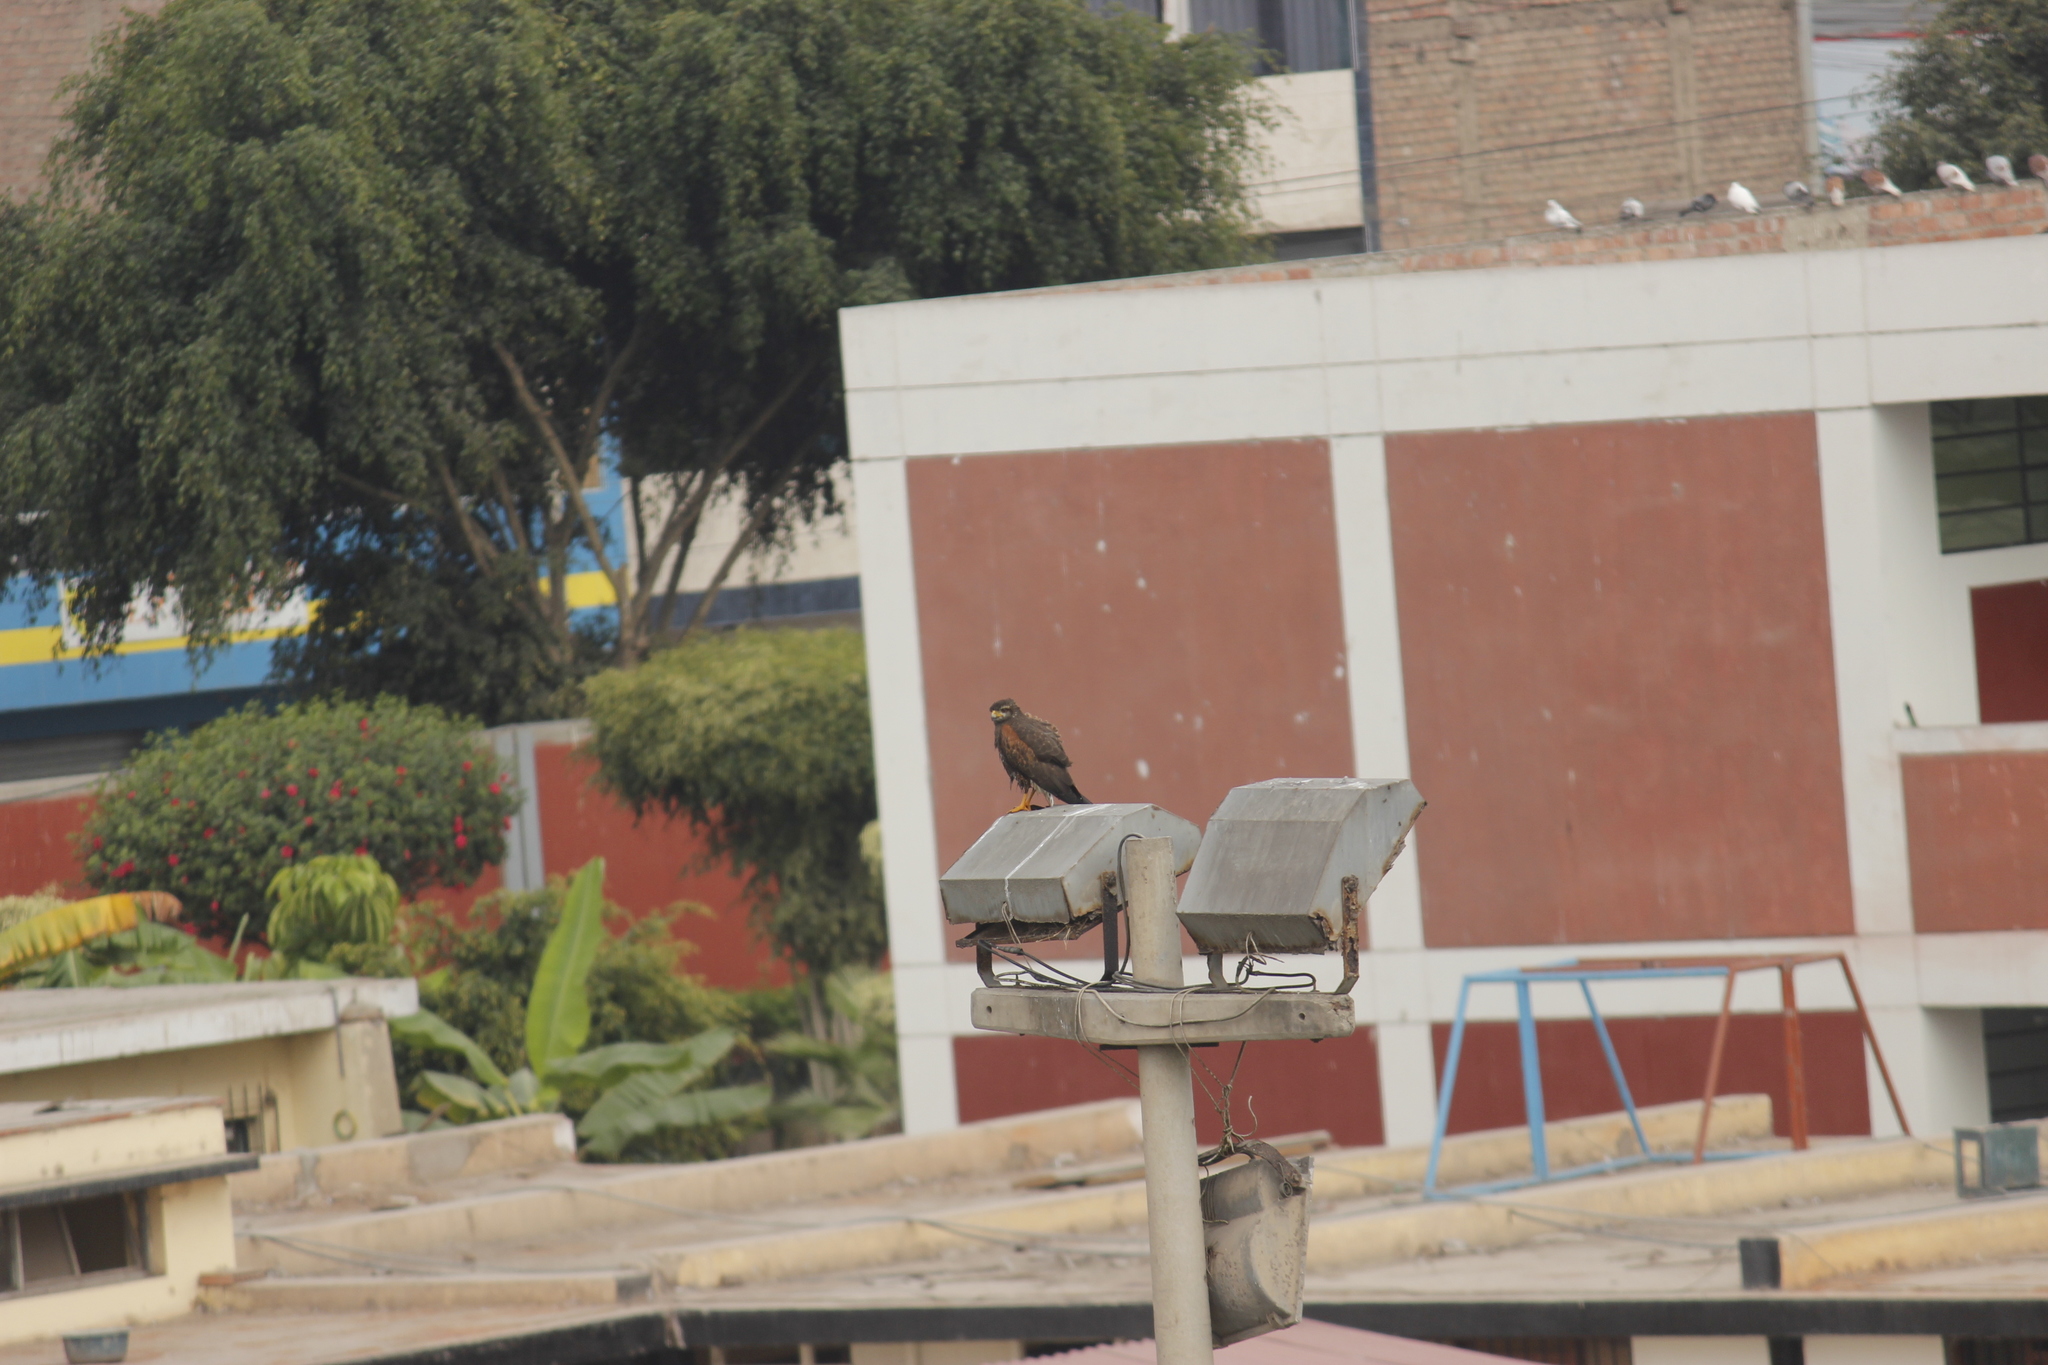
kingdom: Animalia
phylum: Chordata
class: Aves
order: Accipitriformes
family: Accipitridae
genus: Parabuteo
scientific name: Parabuteo unicinctus
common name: Harris's hawk
